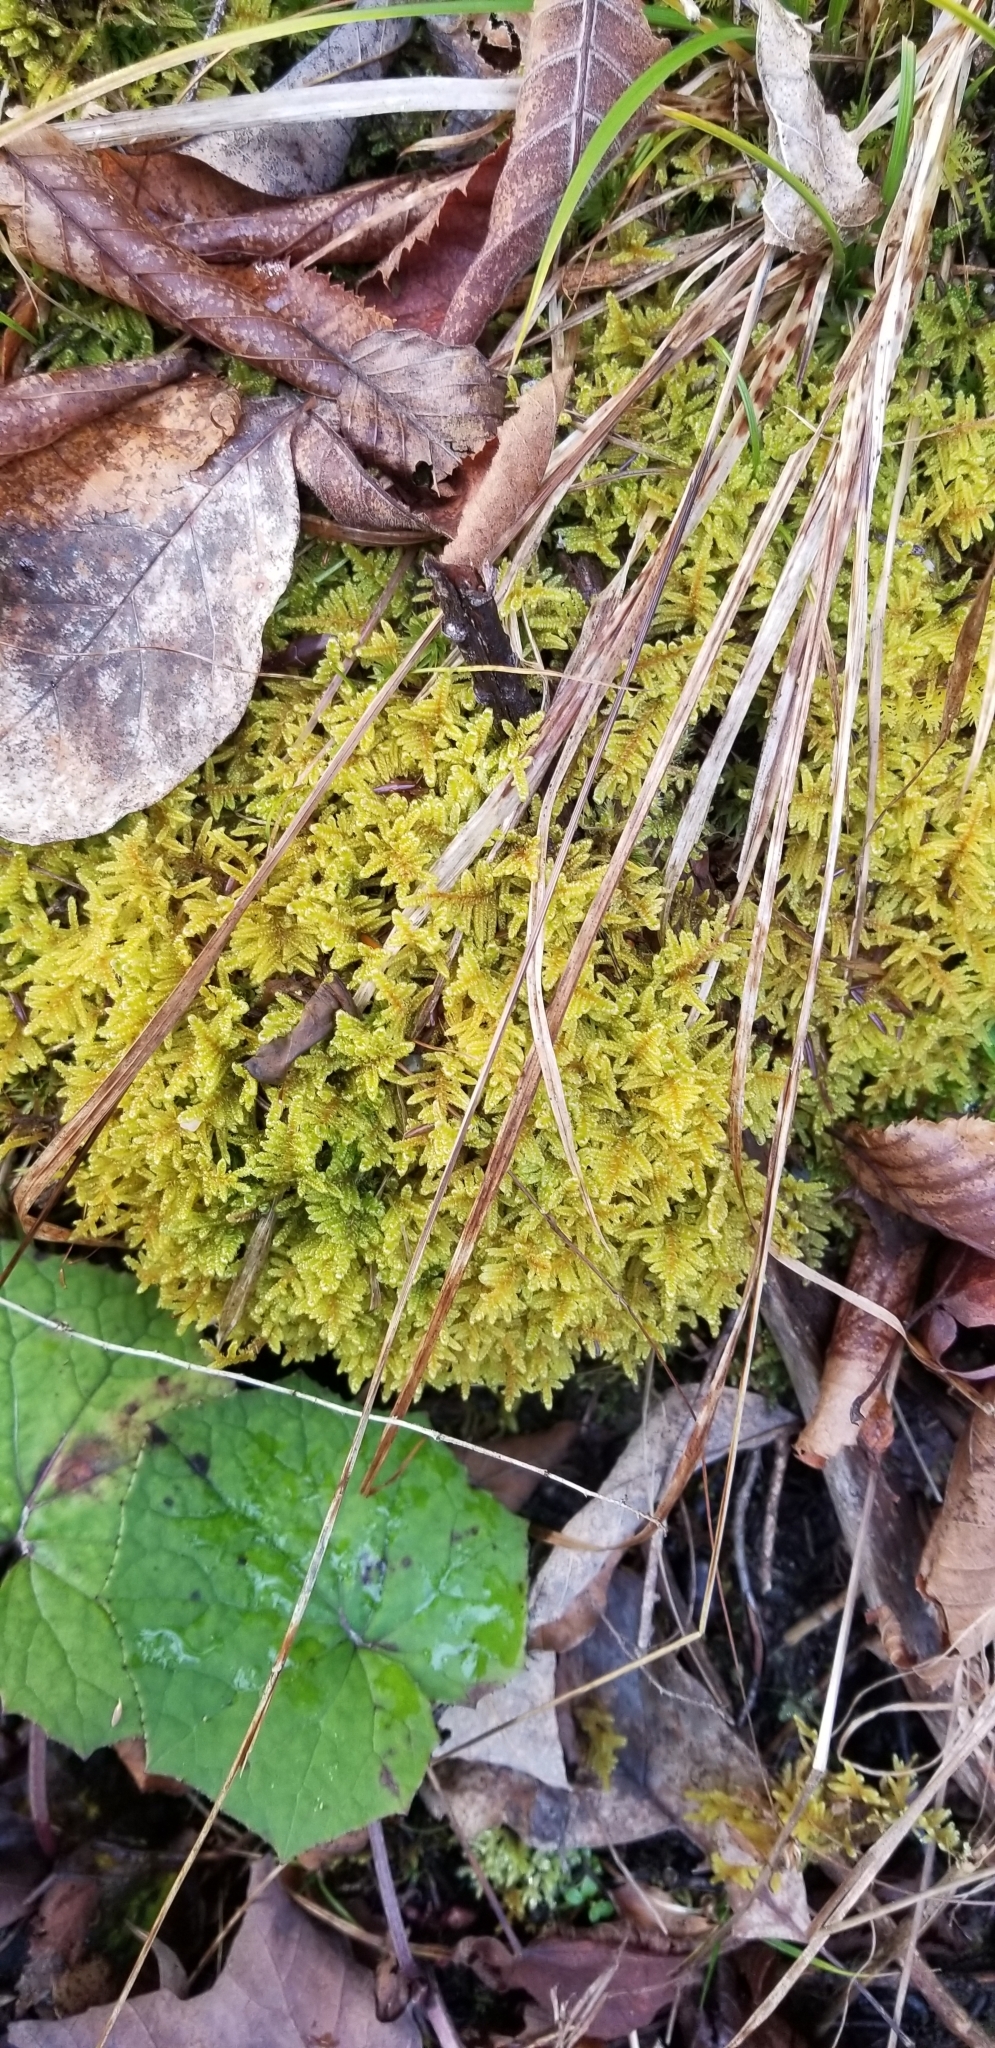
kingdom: Plantae
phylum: Bryophyta
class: Bryopsida
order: Hypnales
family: Callicladiaceae
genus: Callicladium
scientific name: Callicladium imponens
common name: Brocade moss
